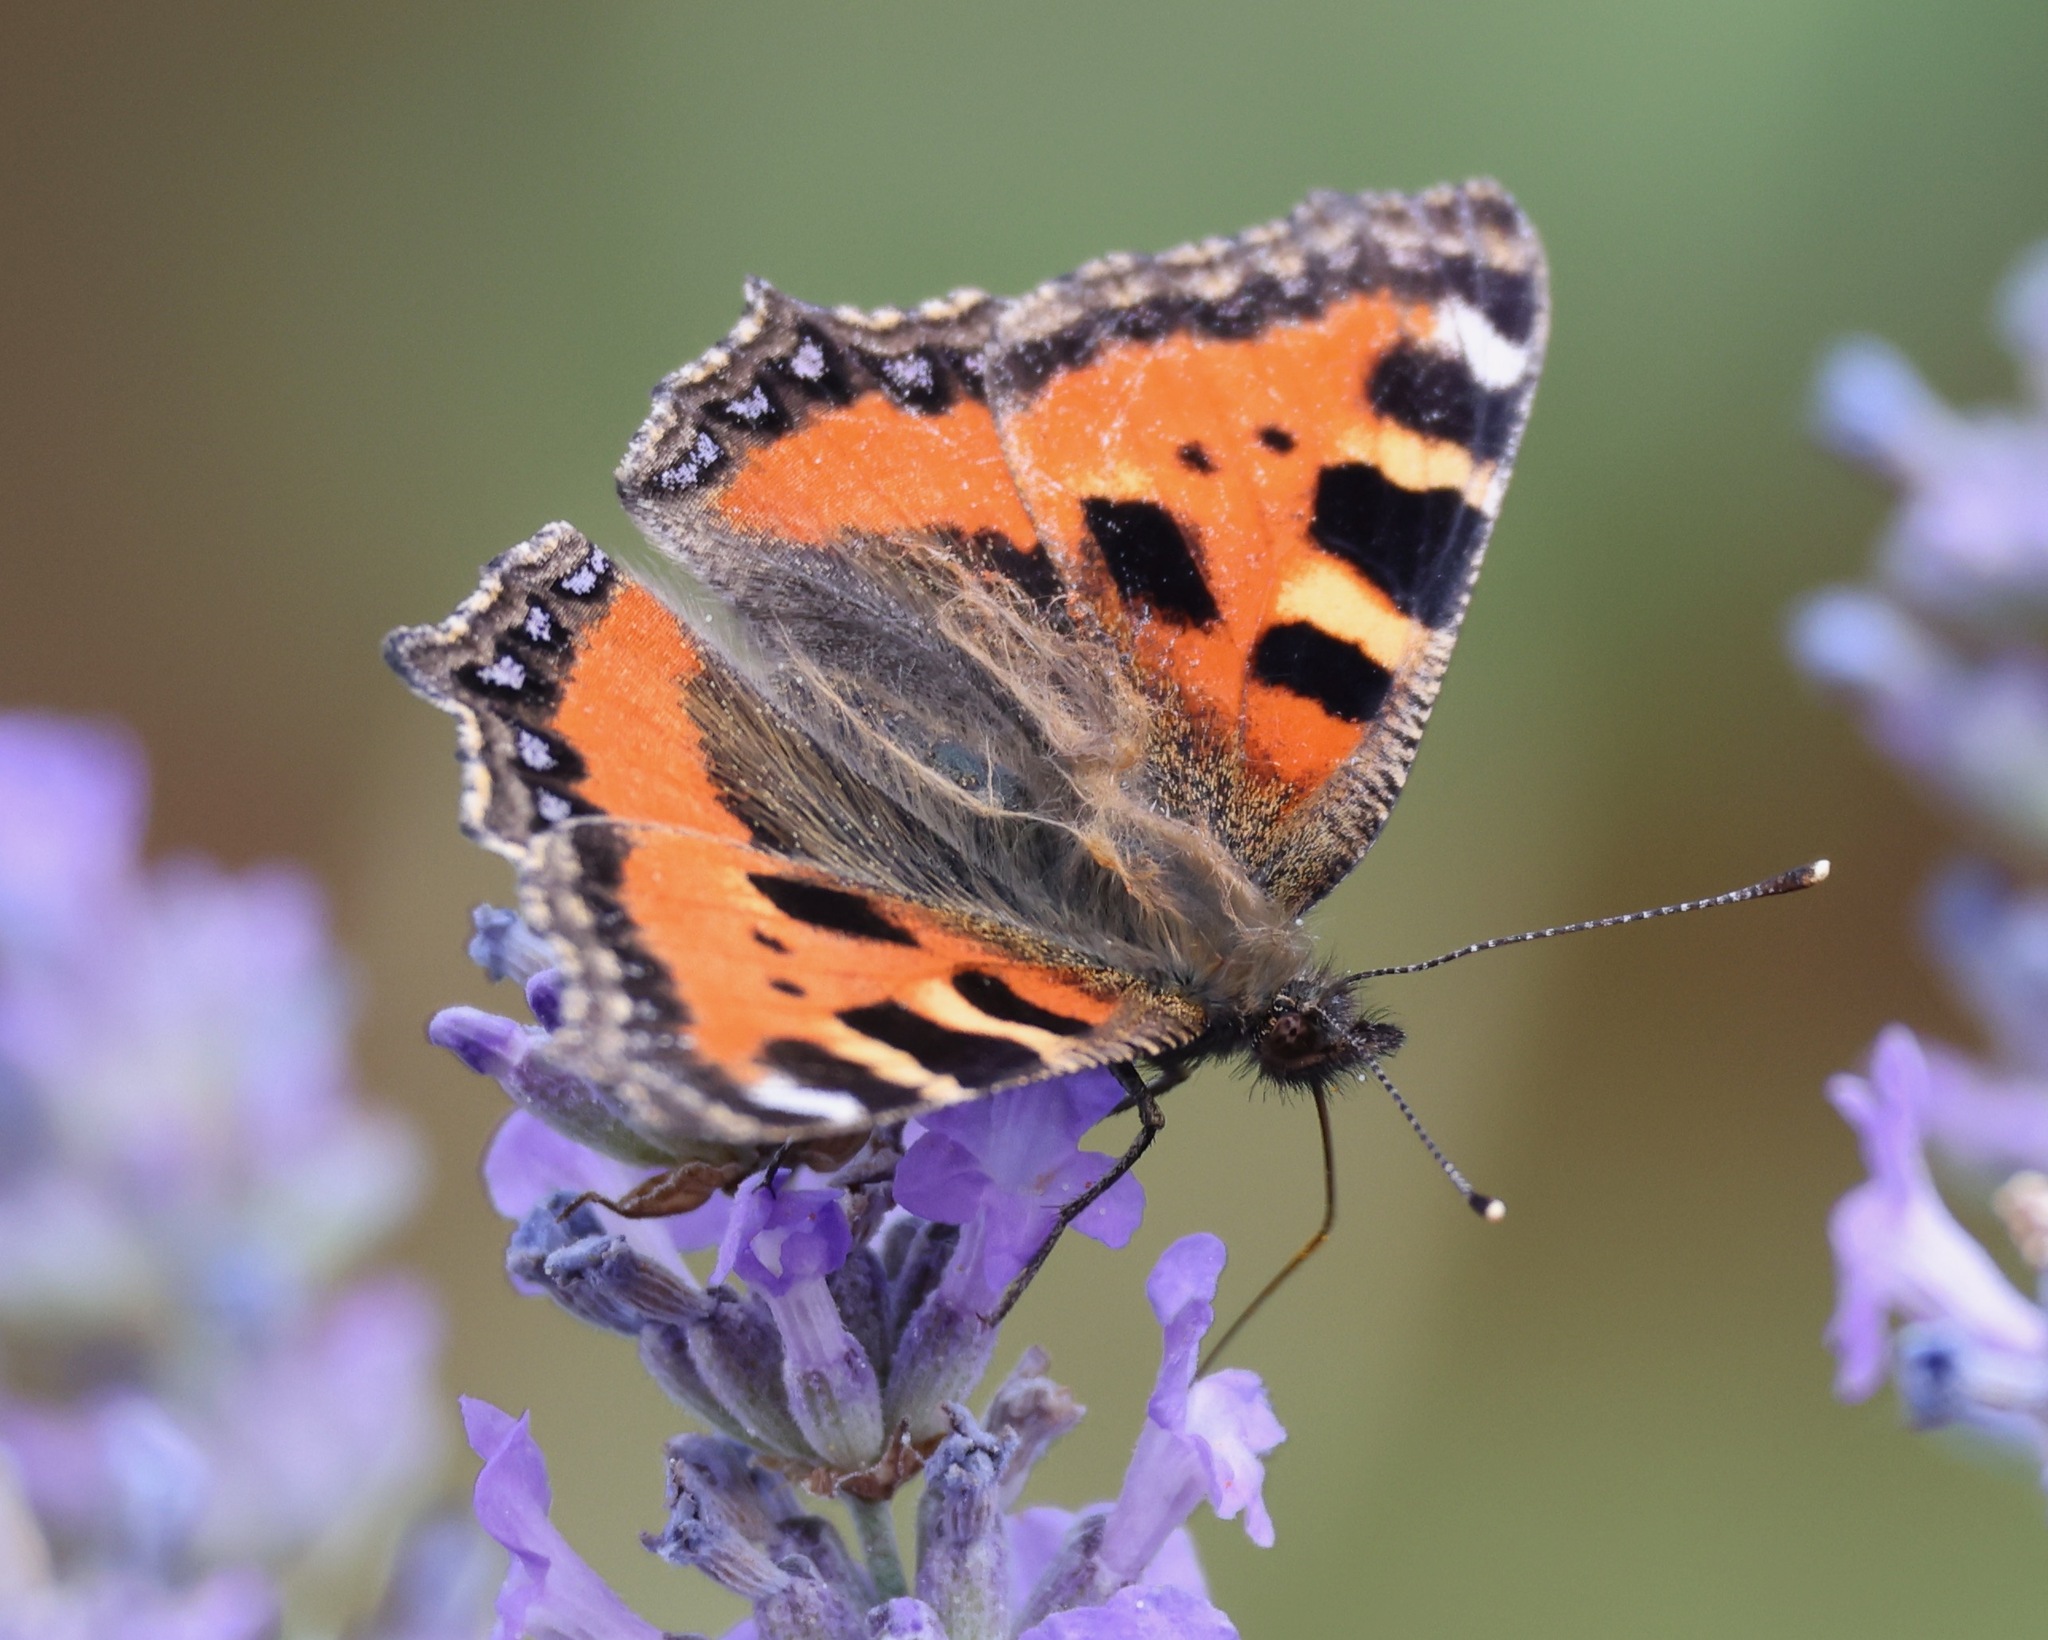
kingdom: Animalia
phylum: Arthropoda
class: Insecta
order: Lepidoptera
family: Nymphalidae
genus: Aglais
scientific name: Aglais urticae
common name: Small tortoiseshell
